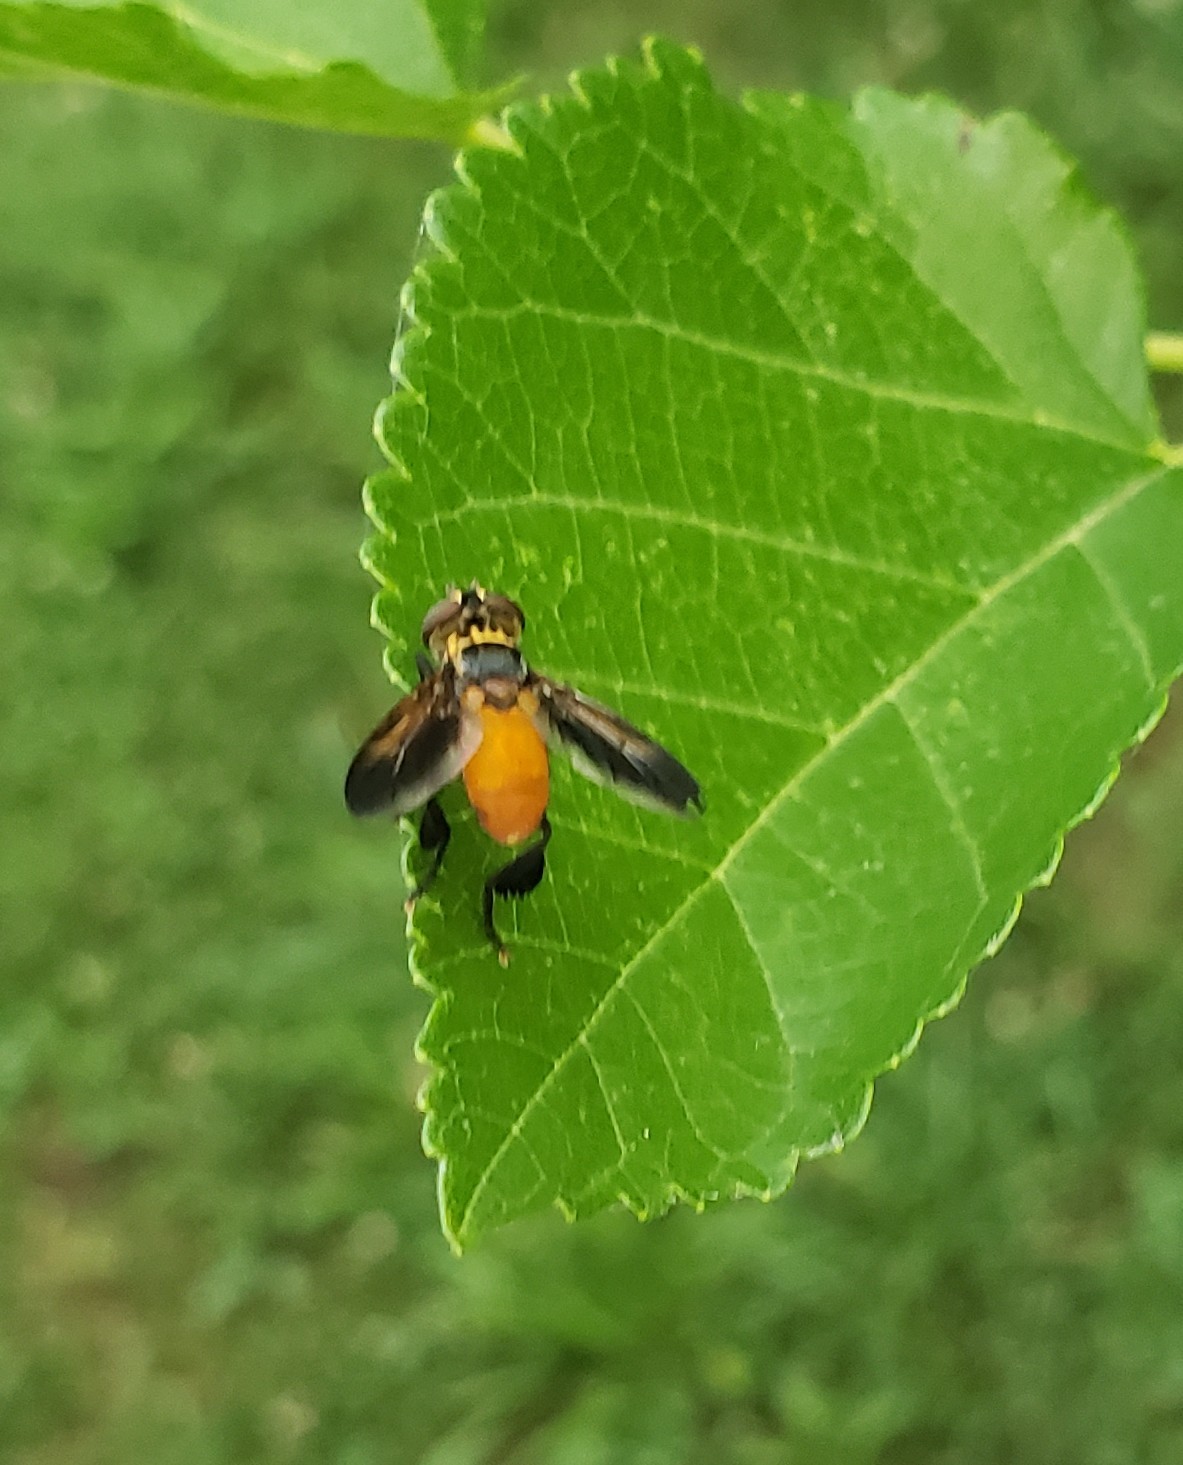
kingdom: Animalia
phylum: Arthropoda
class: Insecta
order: Diptera
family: Tachinidae
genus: Trichopoda
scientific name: Trichopoda pennipes
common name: Tachinid fly
